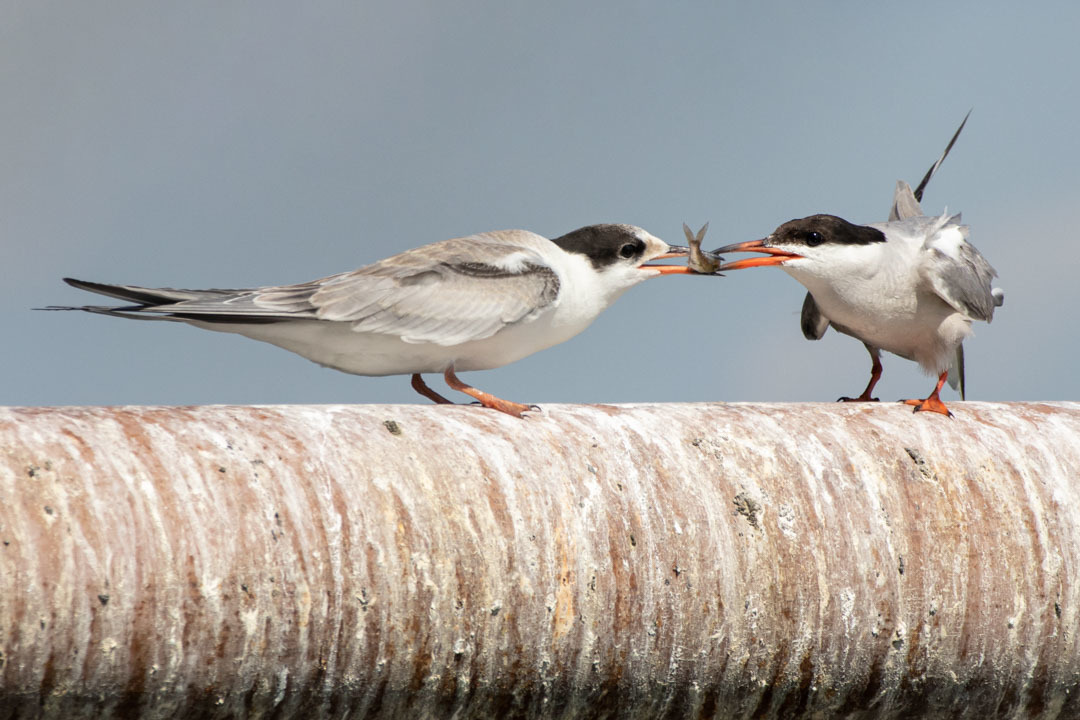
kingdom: Animalia
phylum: Chordata
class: Aves
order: Charadriiformes
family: Laridae
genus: Sterna
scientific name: Sterna hirundo
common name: Common tern
